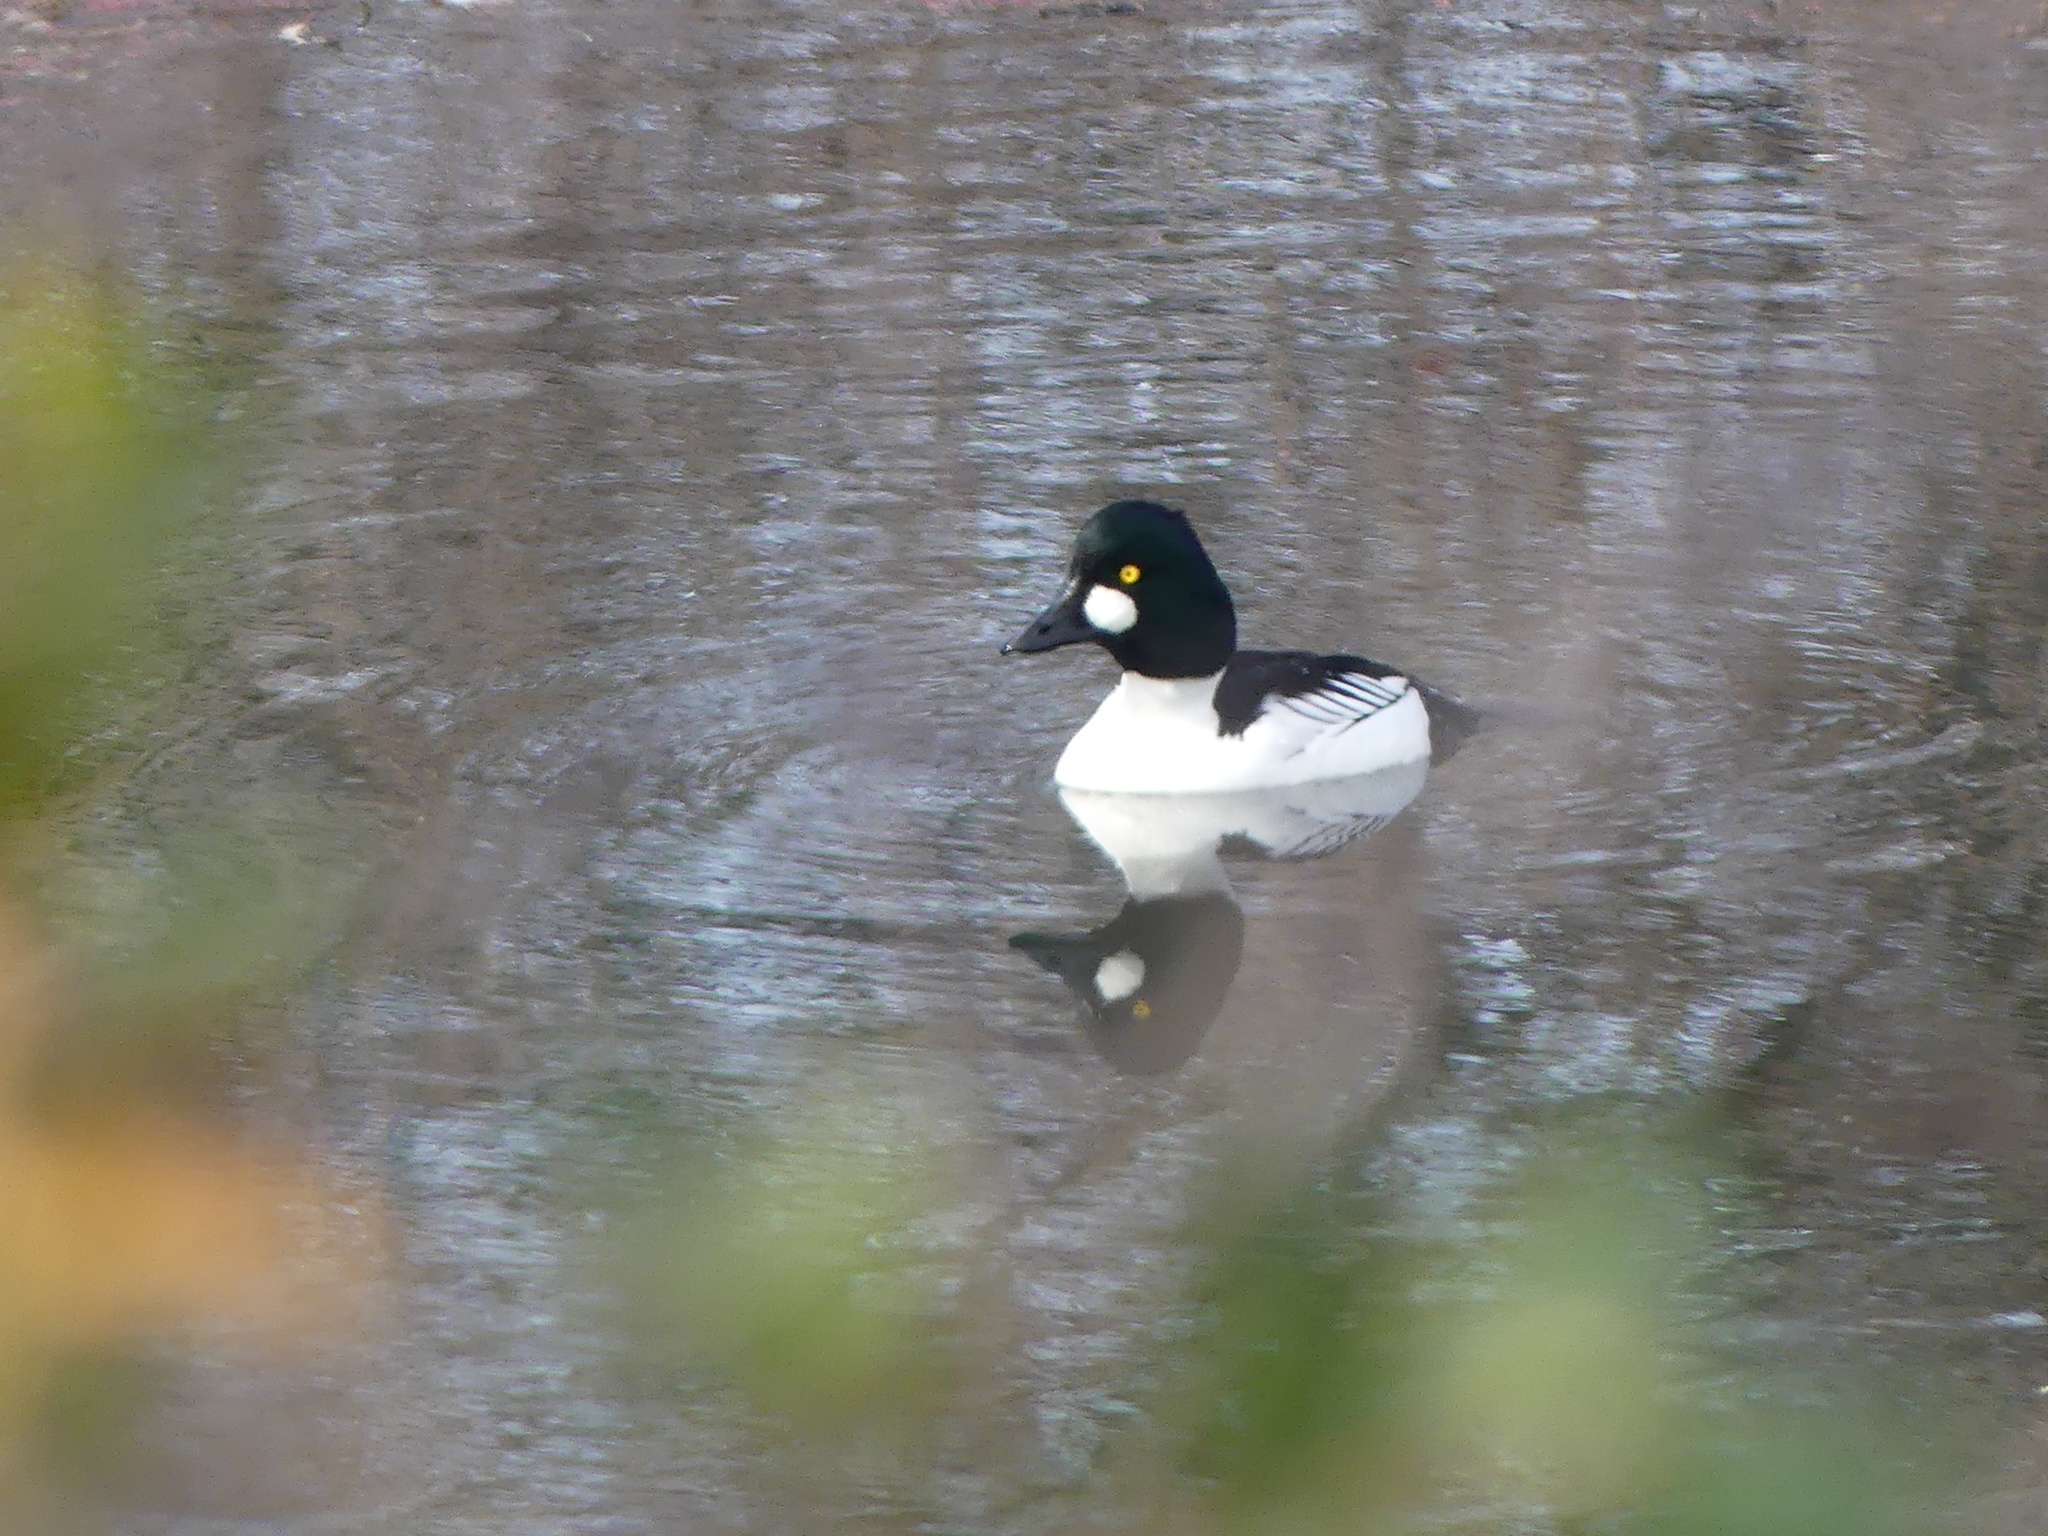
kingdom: Animalia
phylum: Chordata
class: Aves
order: Anseriformes
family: Anatidae
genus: Bucephala
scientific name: Bucephala clangula
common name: Common goldeneye
